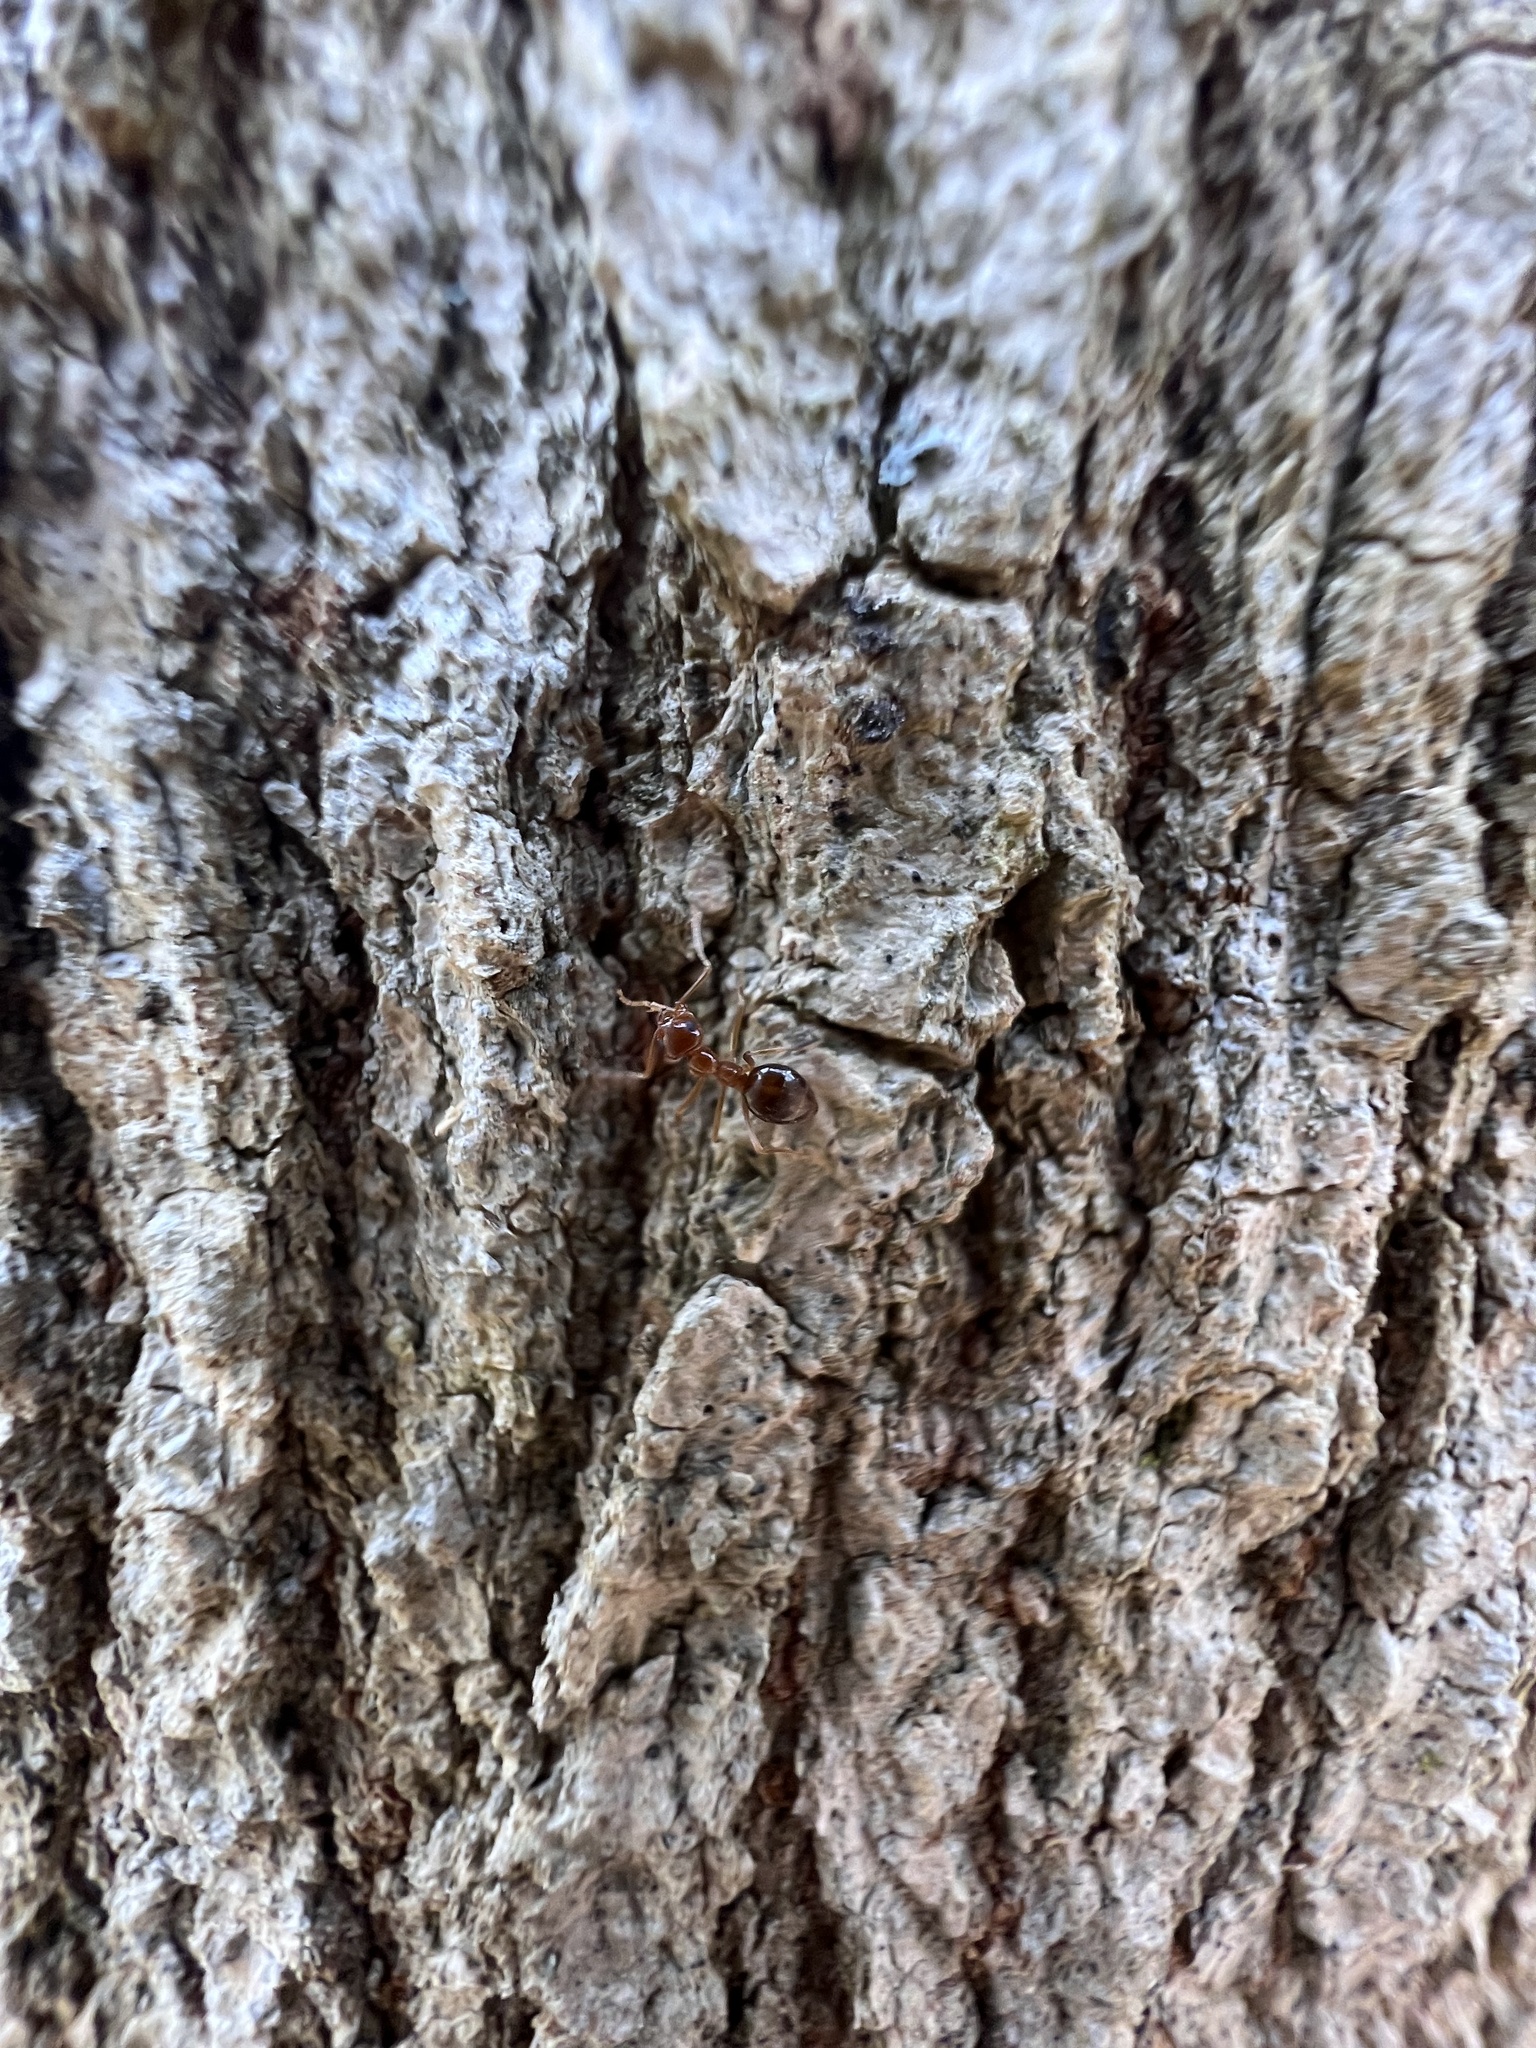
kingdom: Animalia
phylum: Arthropoda
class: Insecta
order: Hymenoptera
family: Formicidae
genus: Prenolepis
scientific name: Prenolepis imparis
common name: Small honey ant
